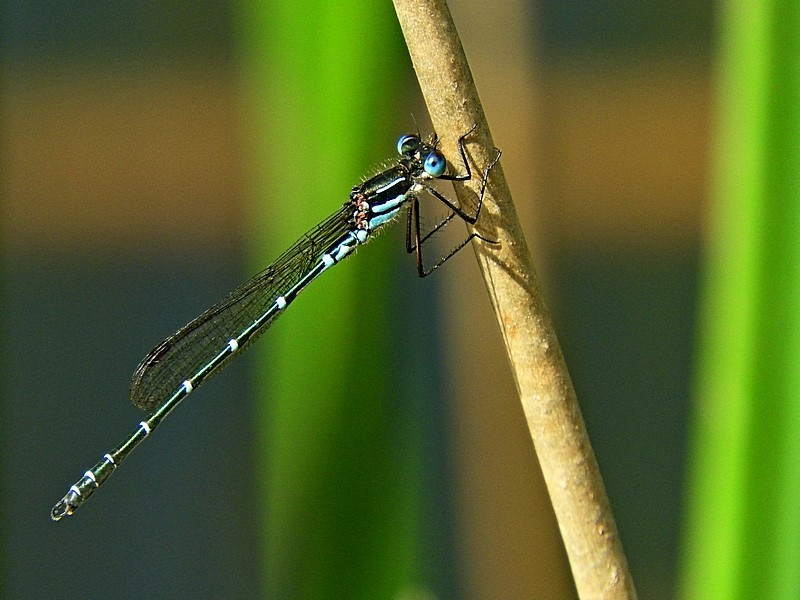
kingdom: Animalia
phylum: Arthropoda
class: Insecta
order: Odonata
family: Lestidae
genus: Austrolestes
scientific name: Austrolestes psyche
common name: Cup ringtail
